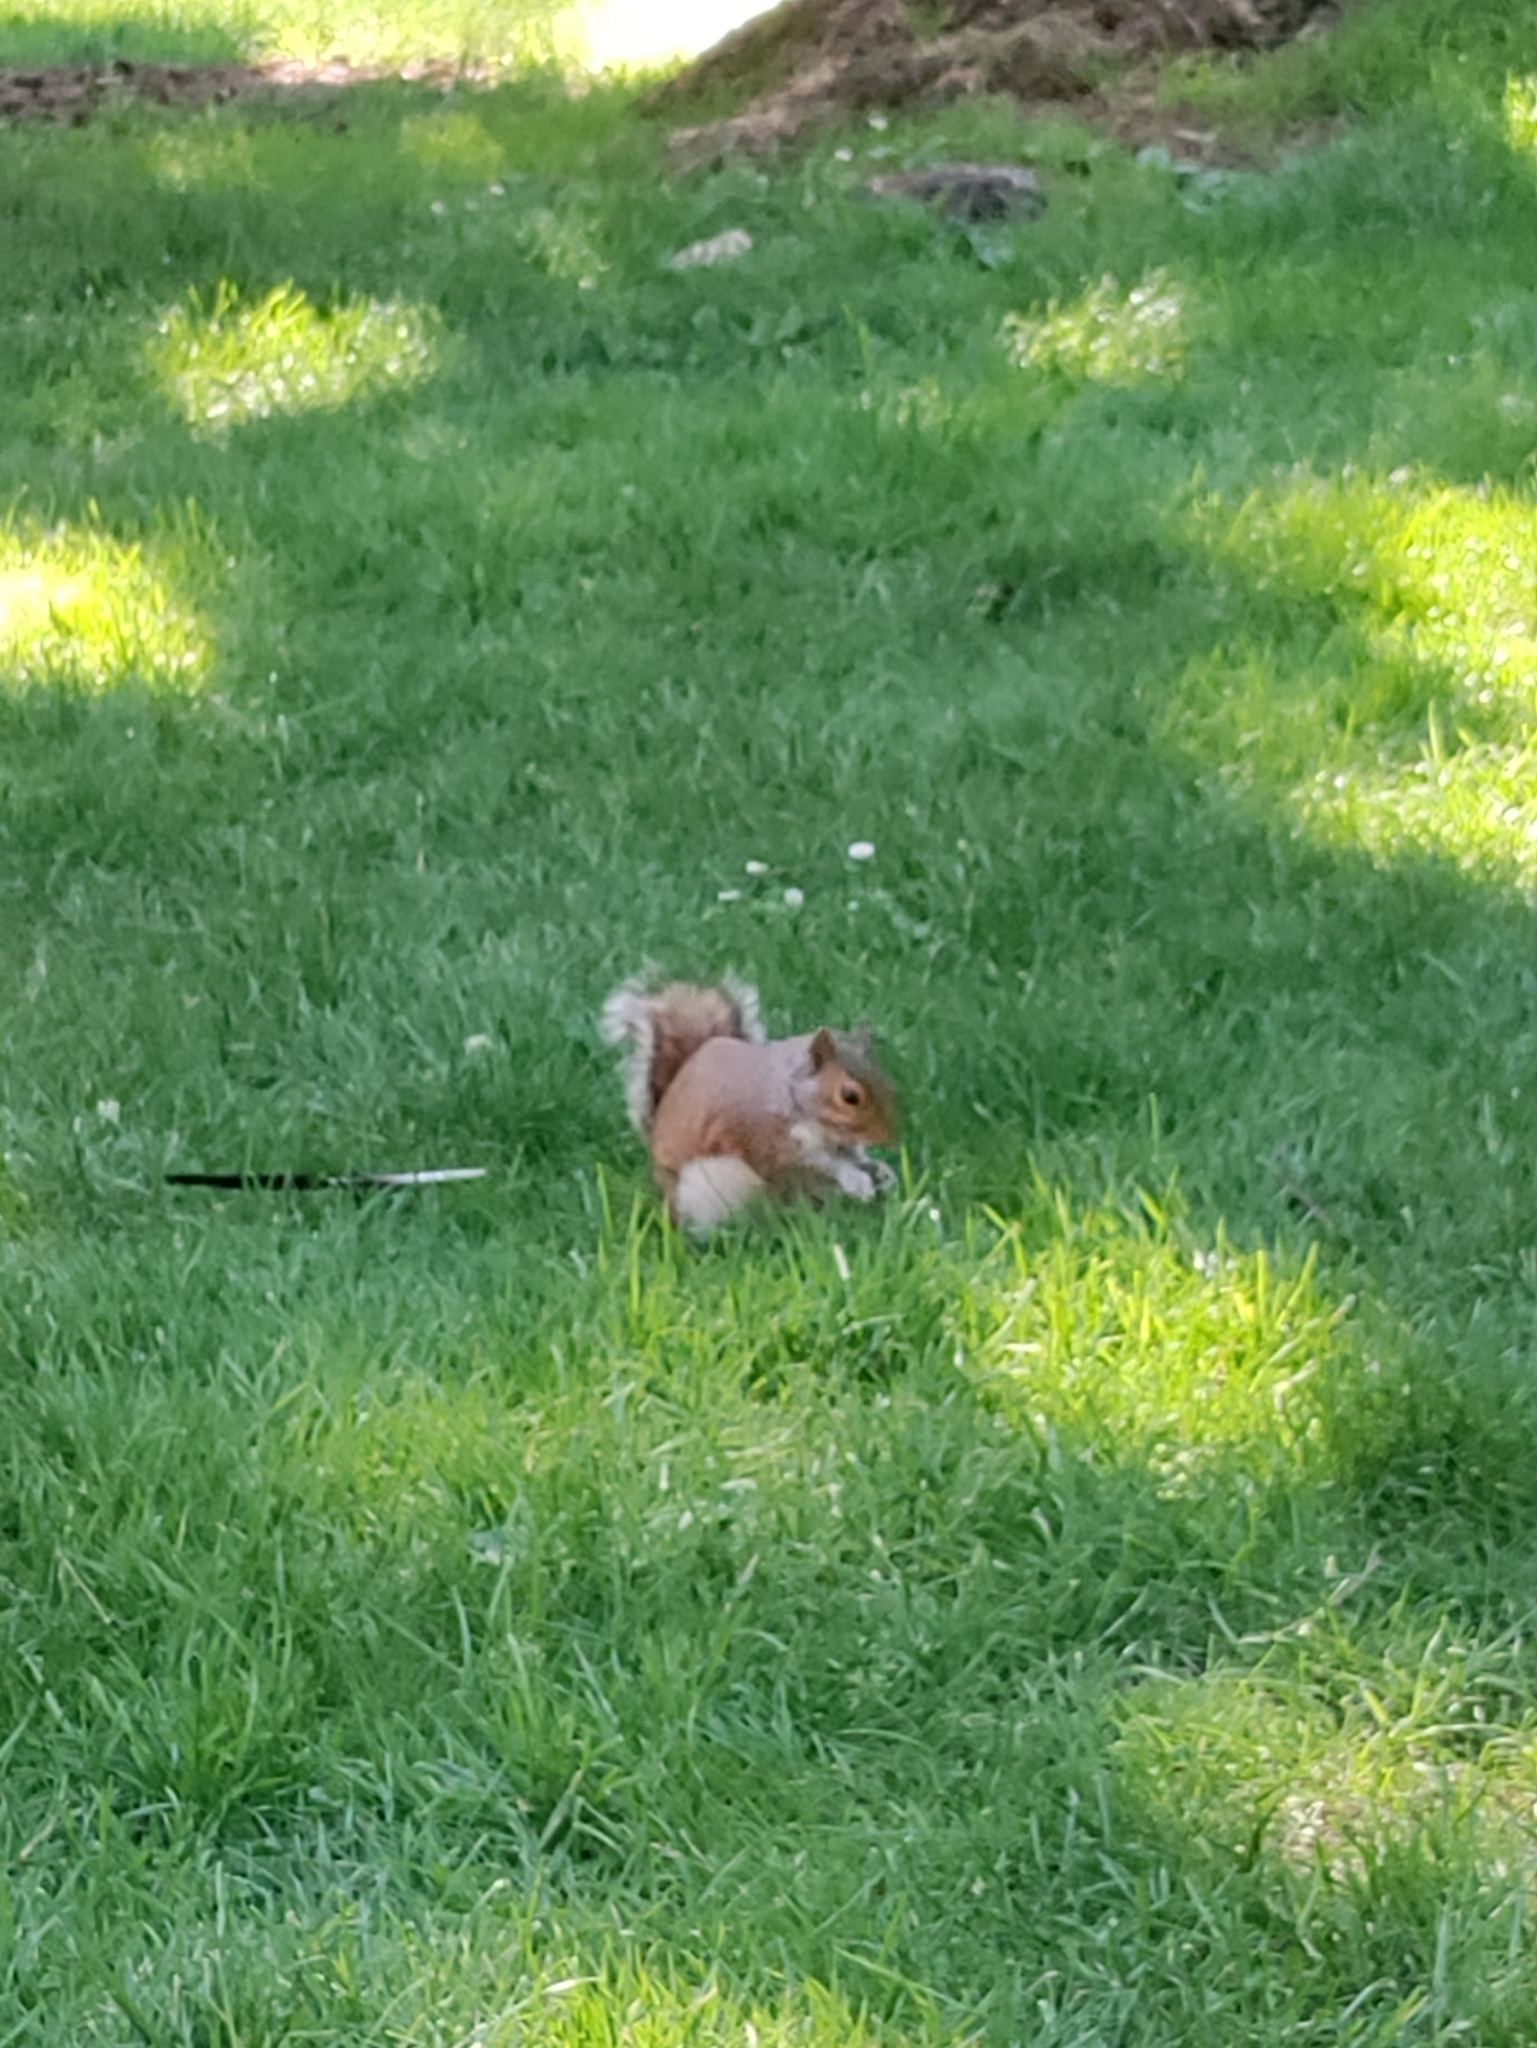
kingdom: Animalia
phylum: Chordata
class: Mammalia
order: Rodentia
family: Sciuridae
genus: Sciurus
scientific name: Sciurus carolinensis
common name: Eastern gray squirrel
